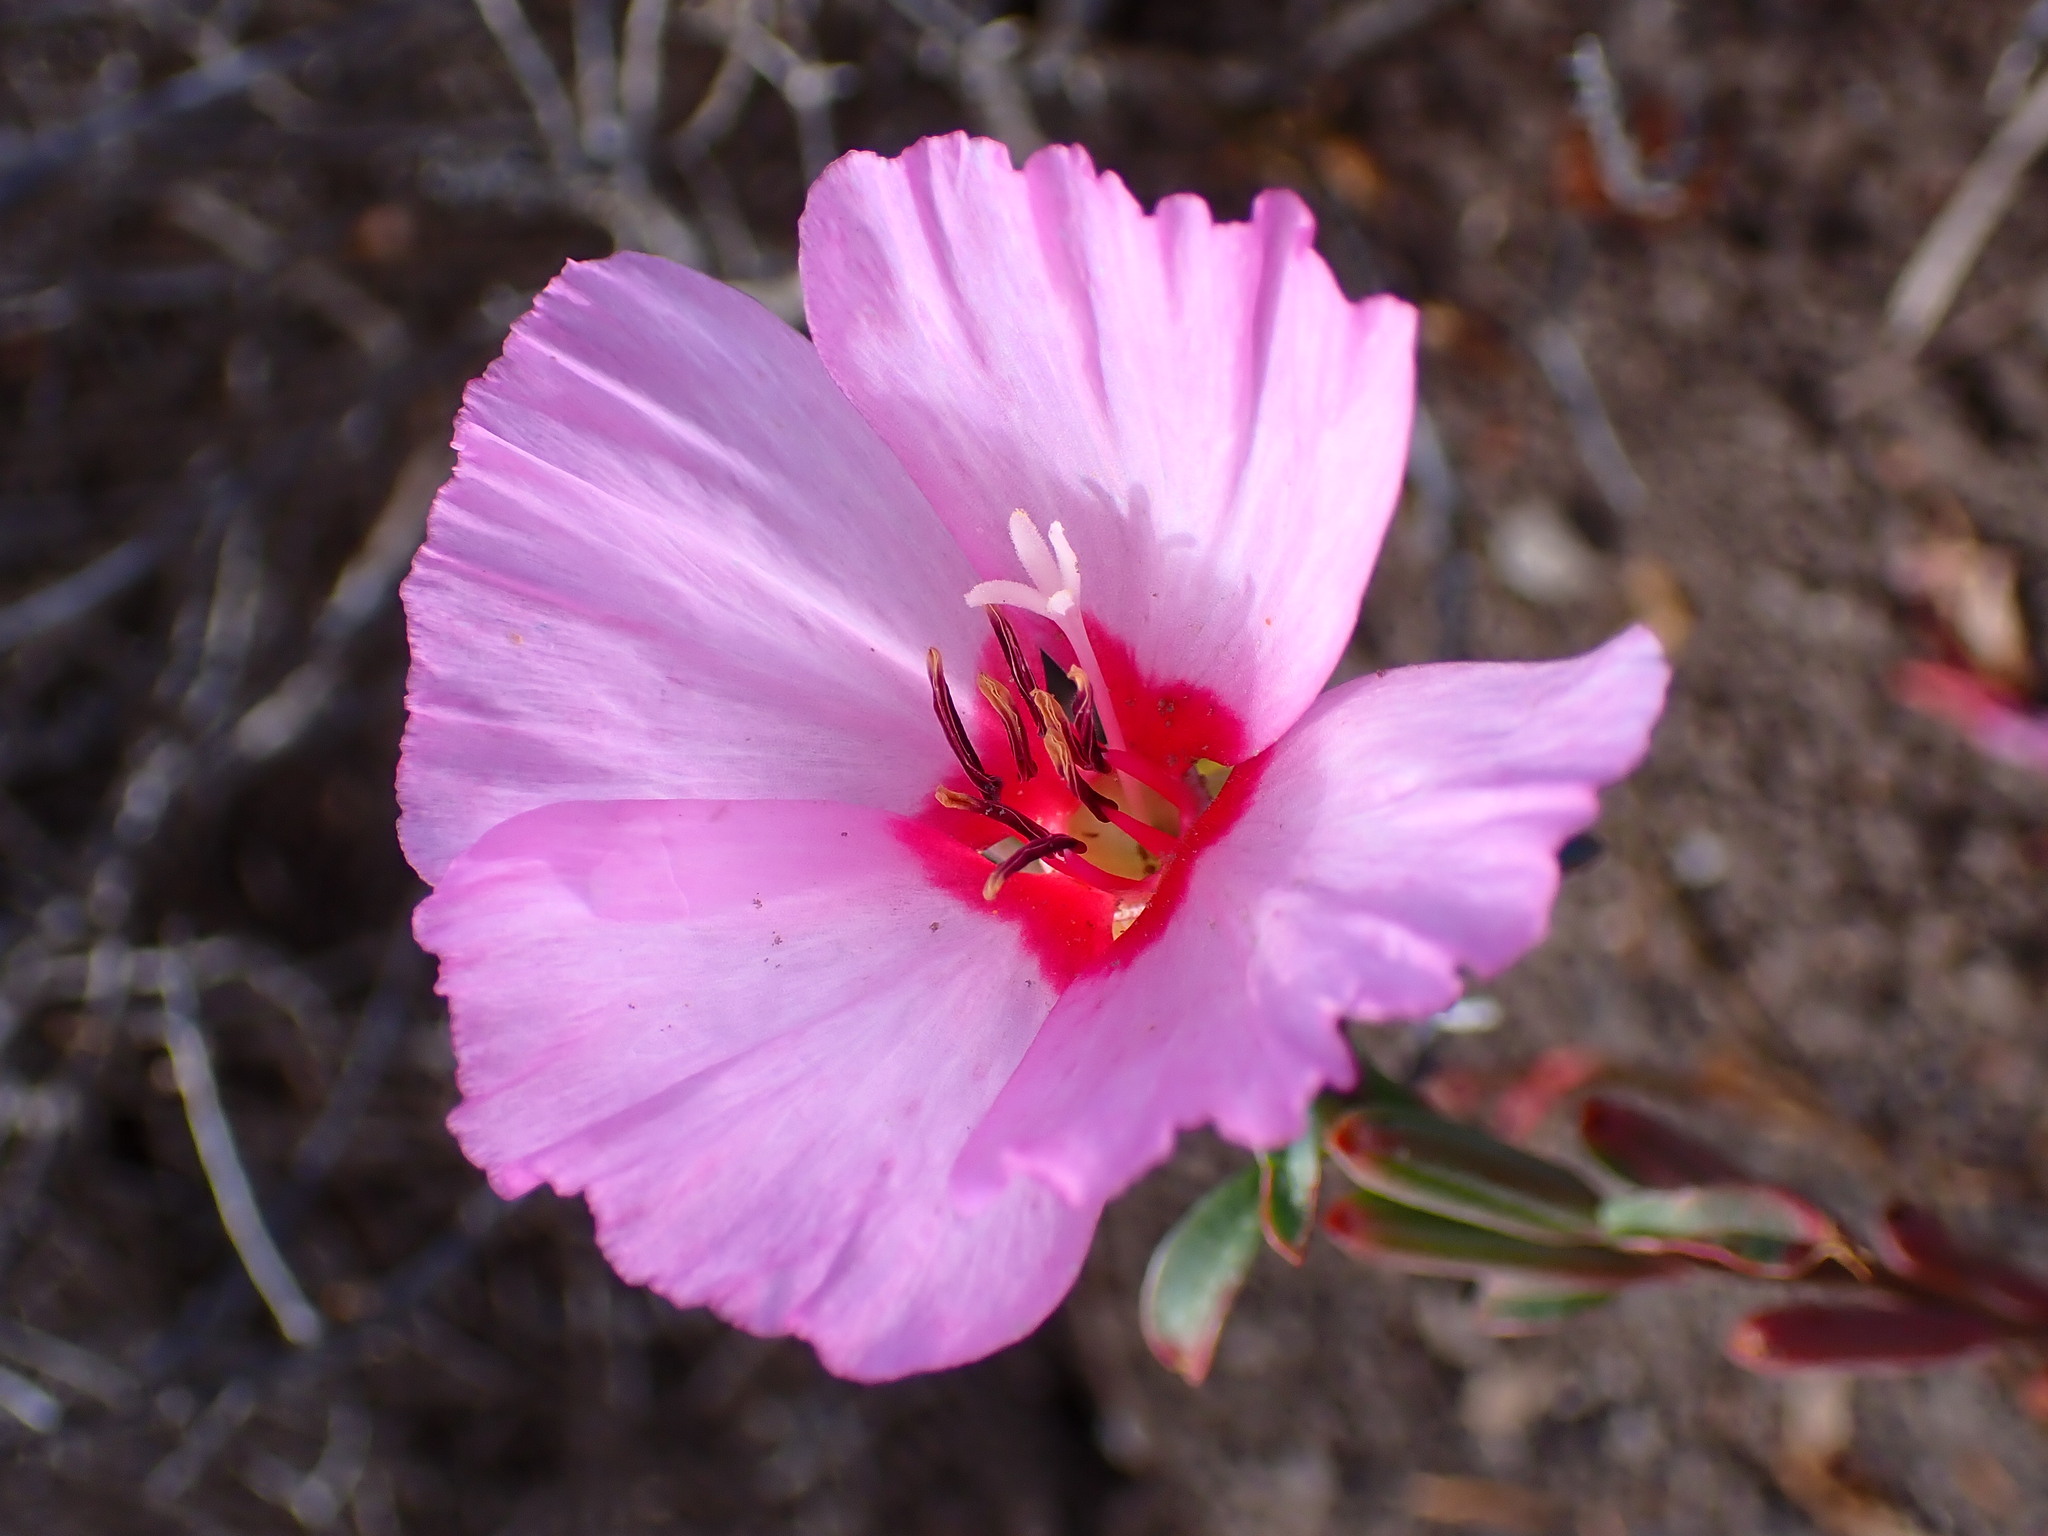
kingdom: Plantae
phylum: Tracheophyta
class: Magnoliopsida
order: Myrtales
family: Onagraceae
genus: Clarkia
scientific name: Clarkia rubicunda
